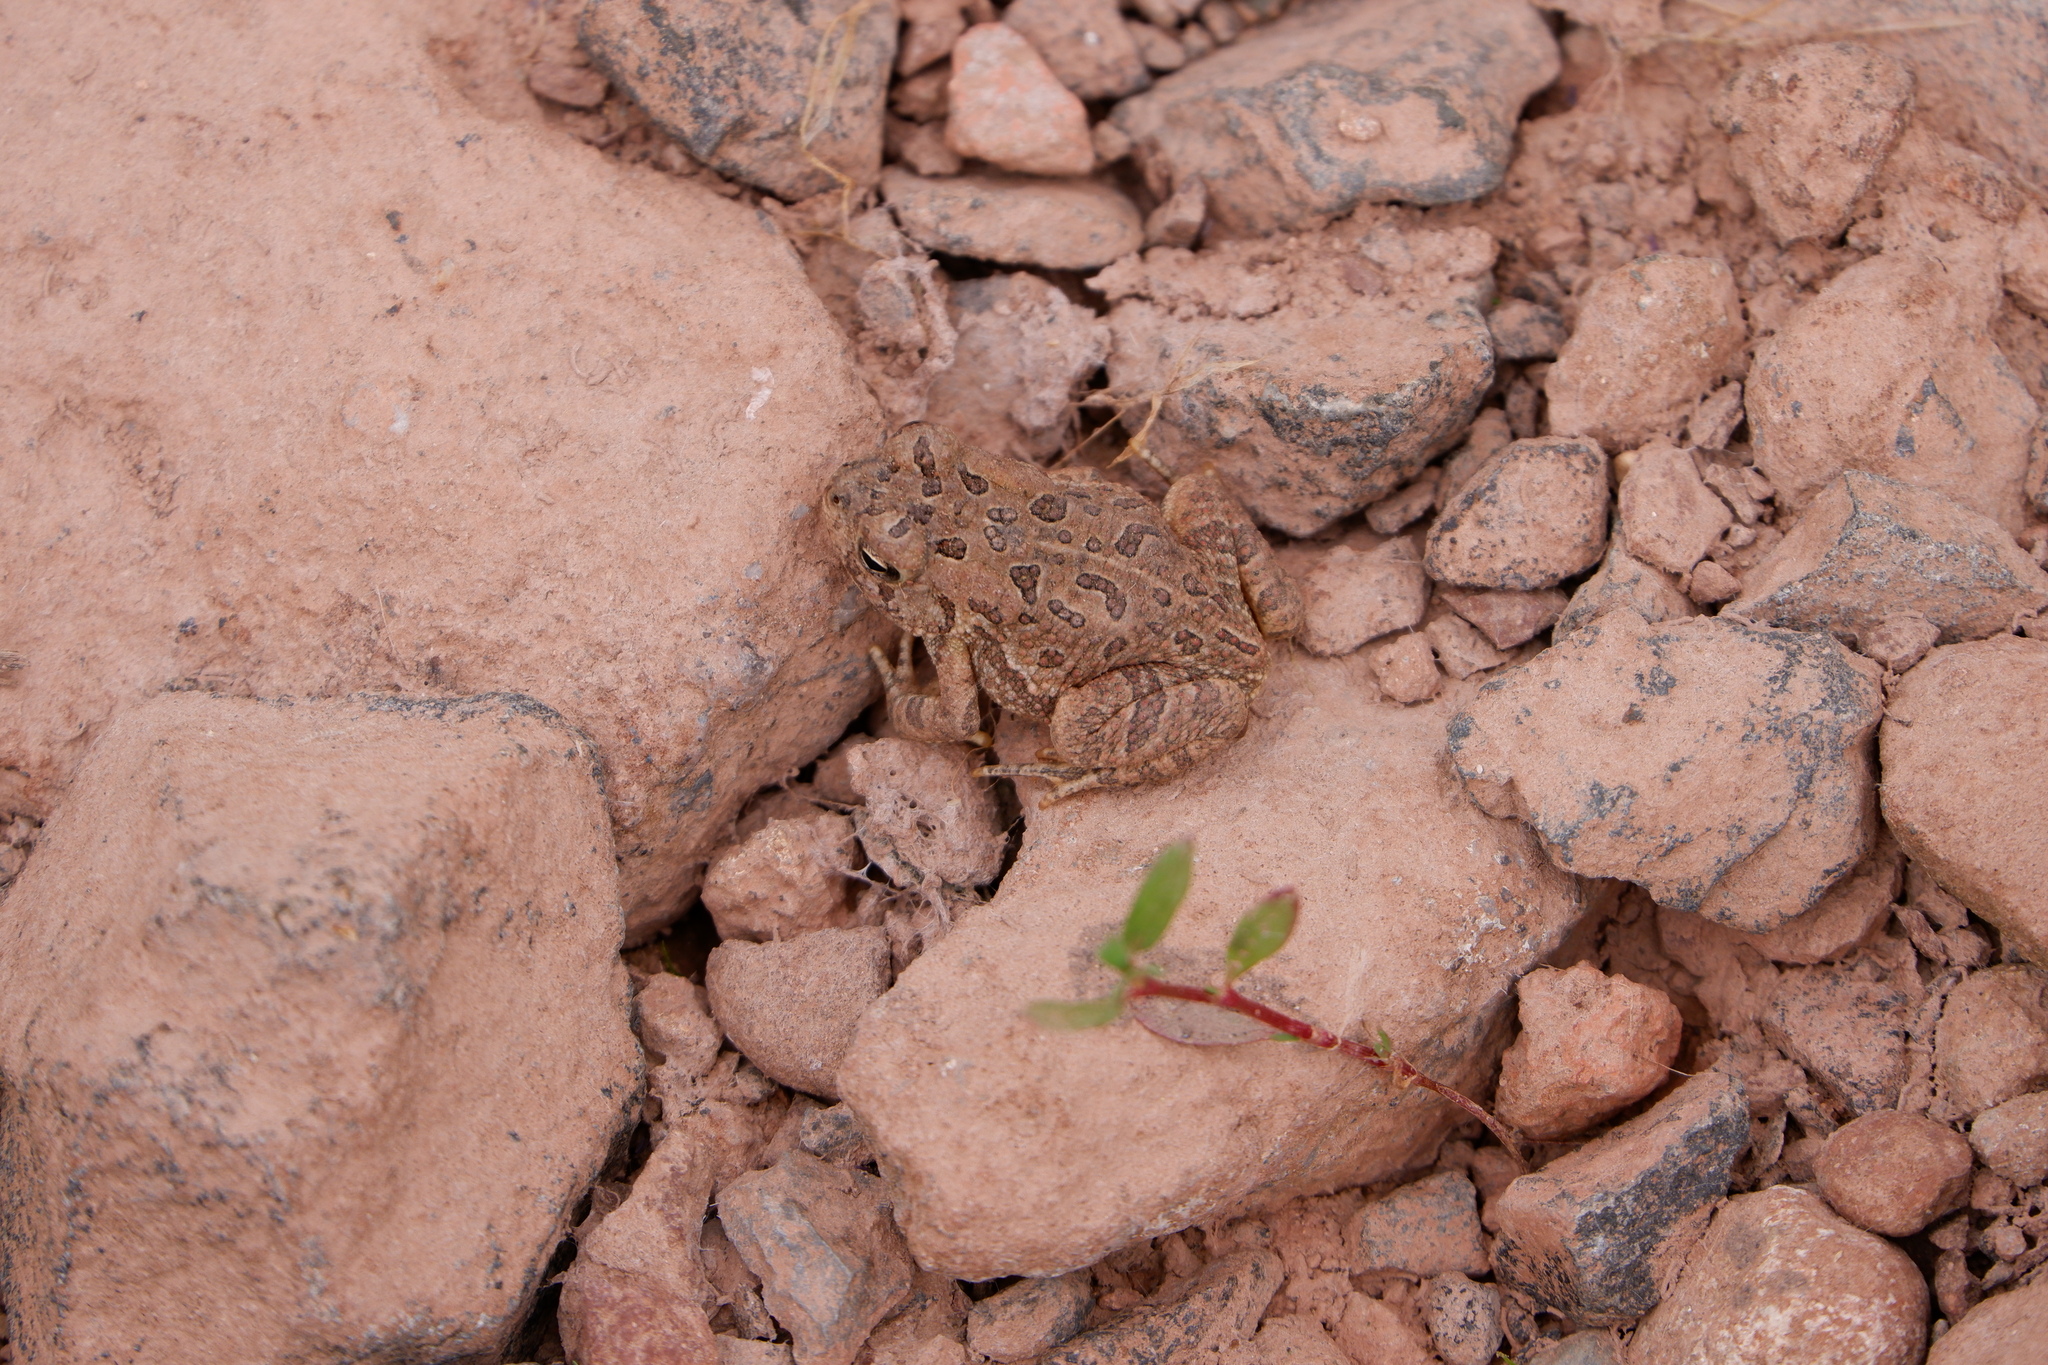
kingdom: Animalia
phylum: Chordata
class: Amphibia
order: Anura
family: Bufonidae
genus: Anaxyrus
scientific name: Anaxyrus fowleri
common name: Fowler's toad
